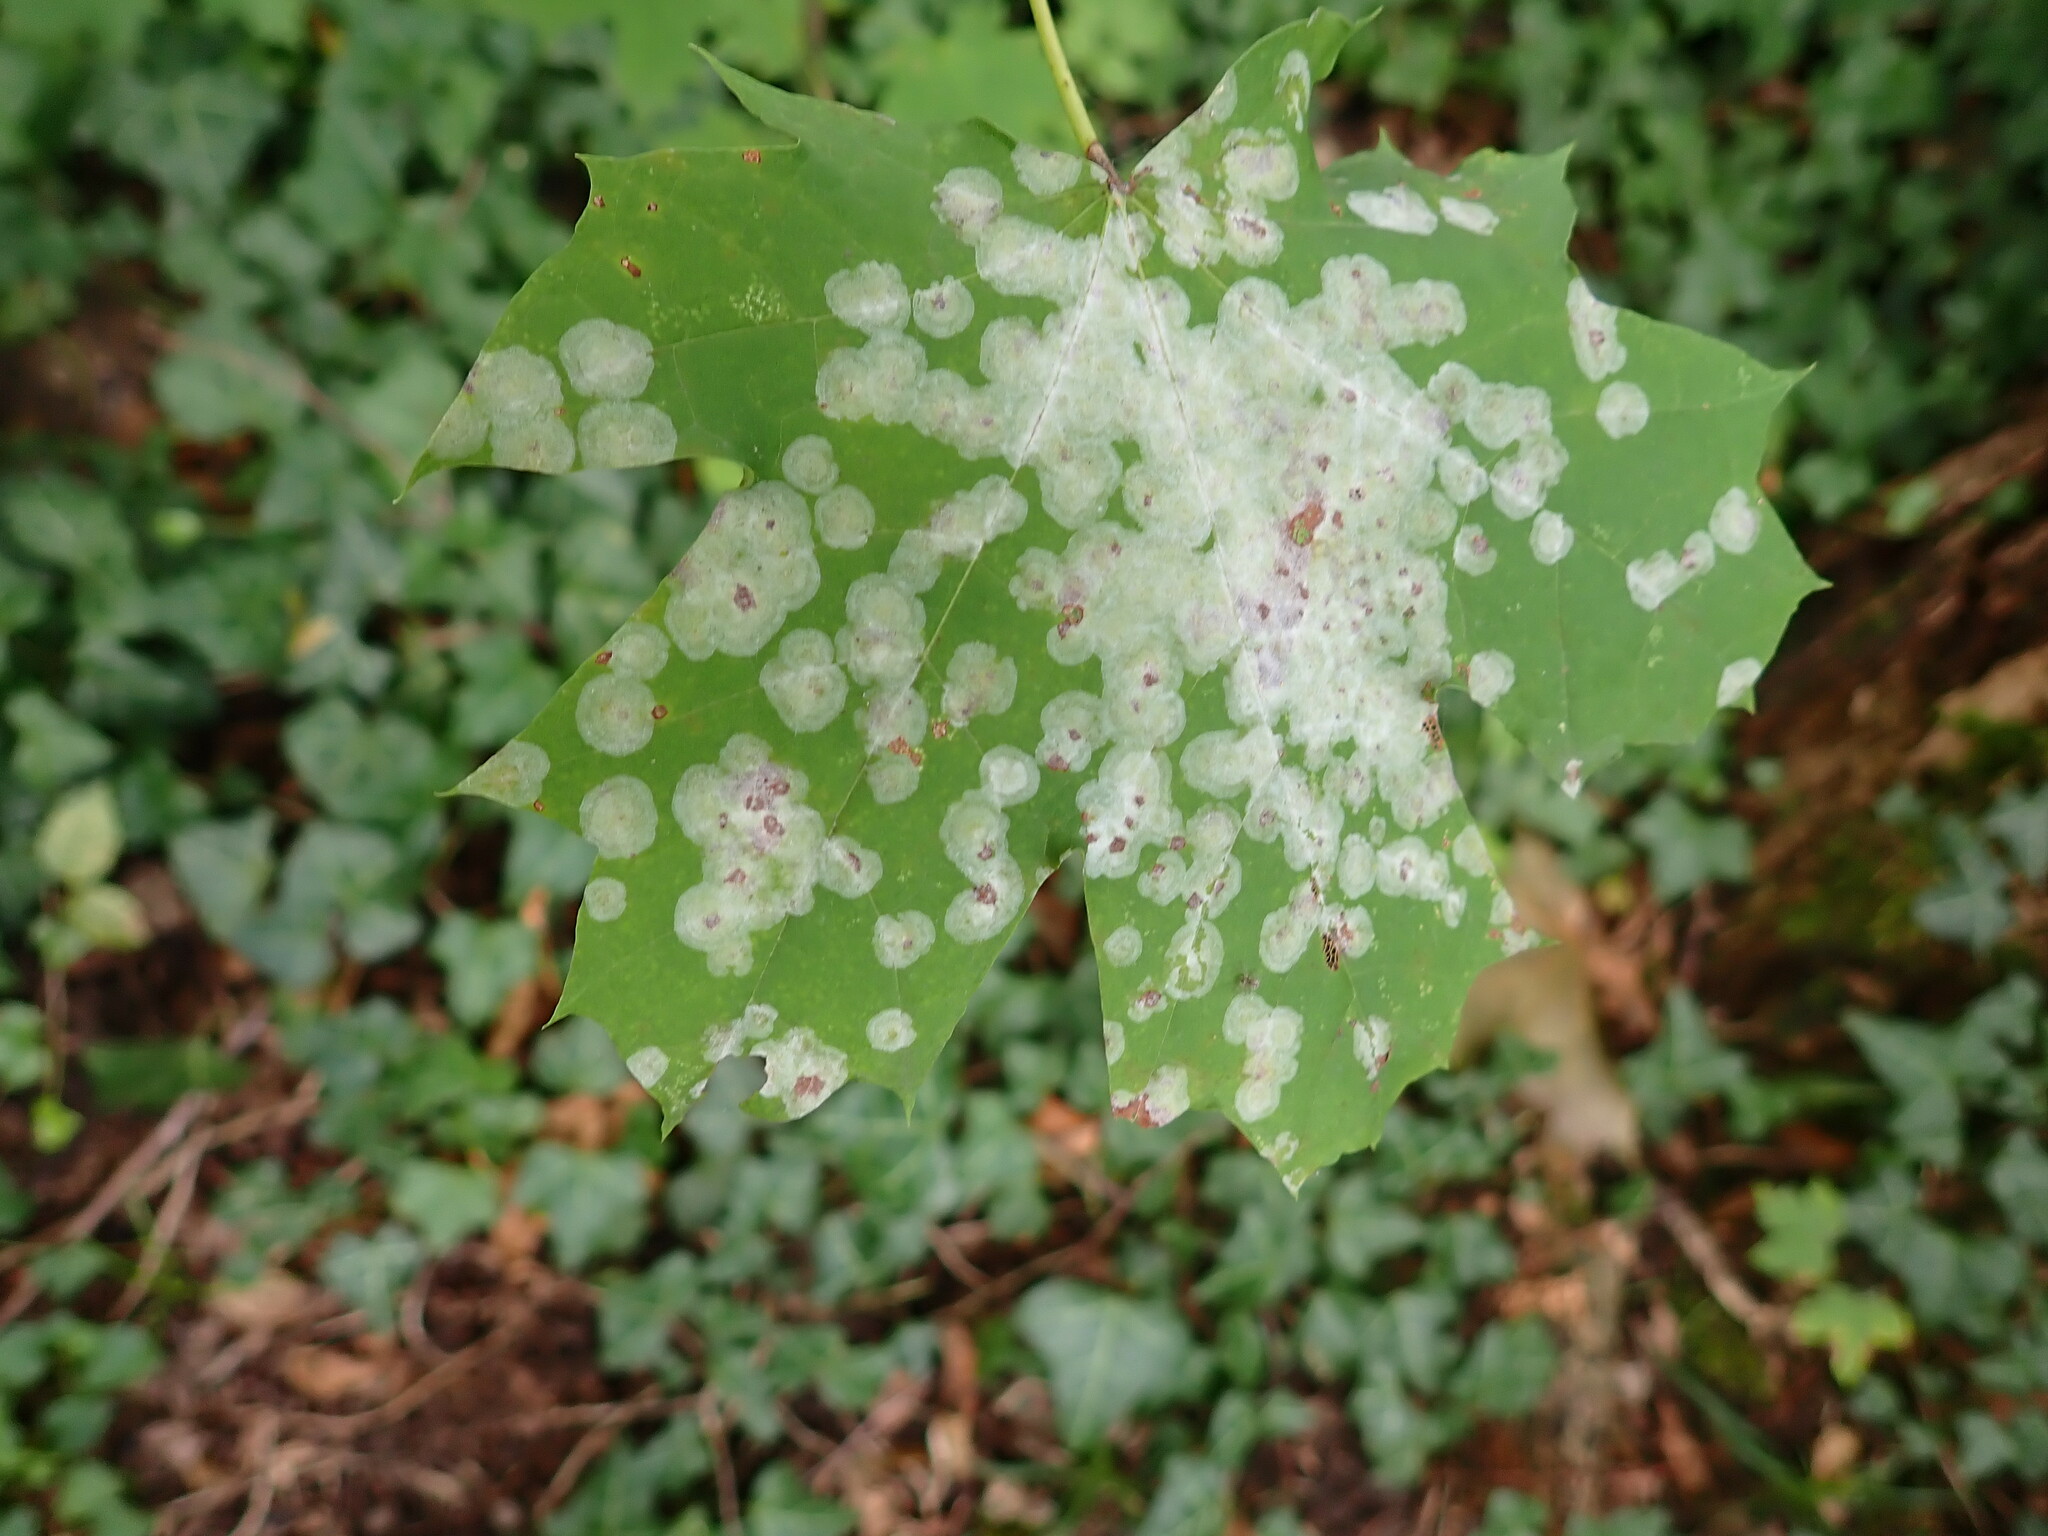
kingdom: Fungi
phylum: Ascomycota
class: Leotiomycetes
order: Helotiales
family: Erysiphaceae
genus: Sawadaea
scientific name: Sawadaea tulasnei
